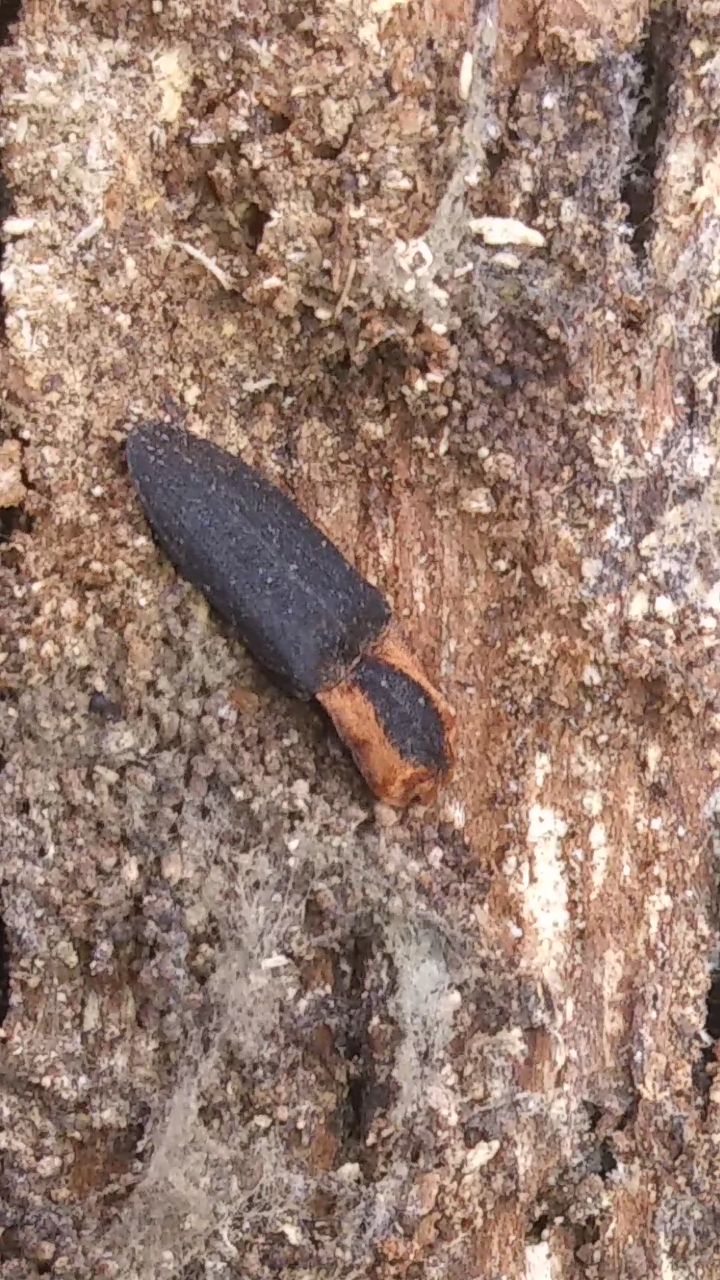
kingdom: Animalia
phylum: Arthropoda
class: Insecta
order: Coleoptera
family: Elateridae
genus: Lacon
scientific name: Lacon discoideus
